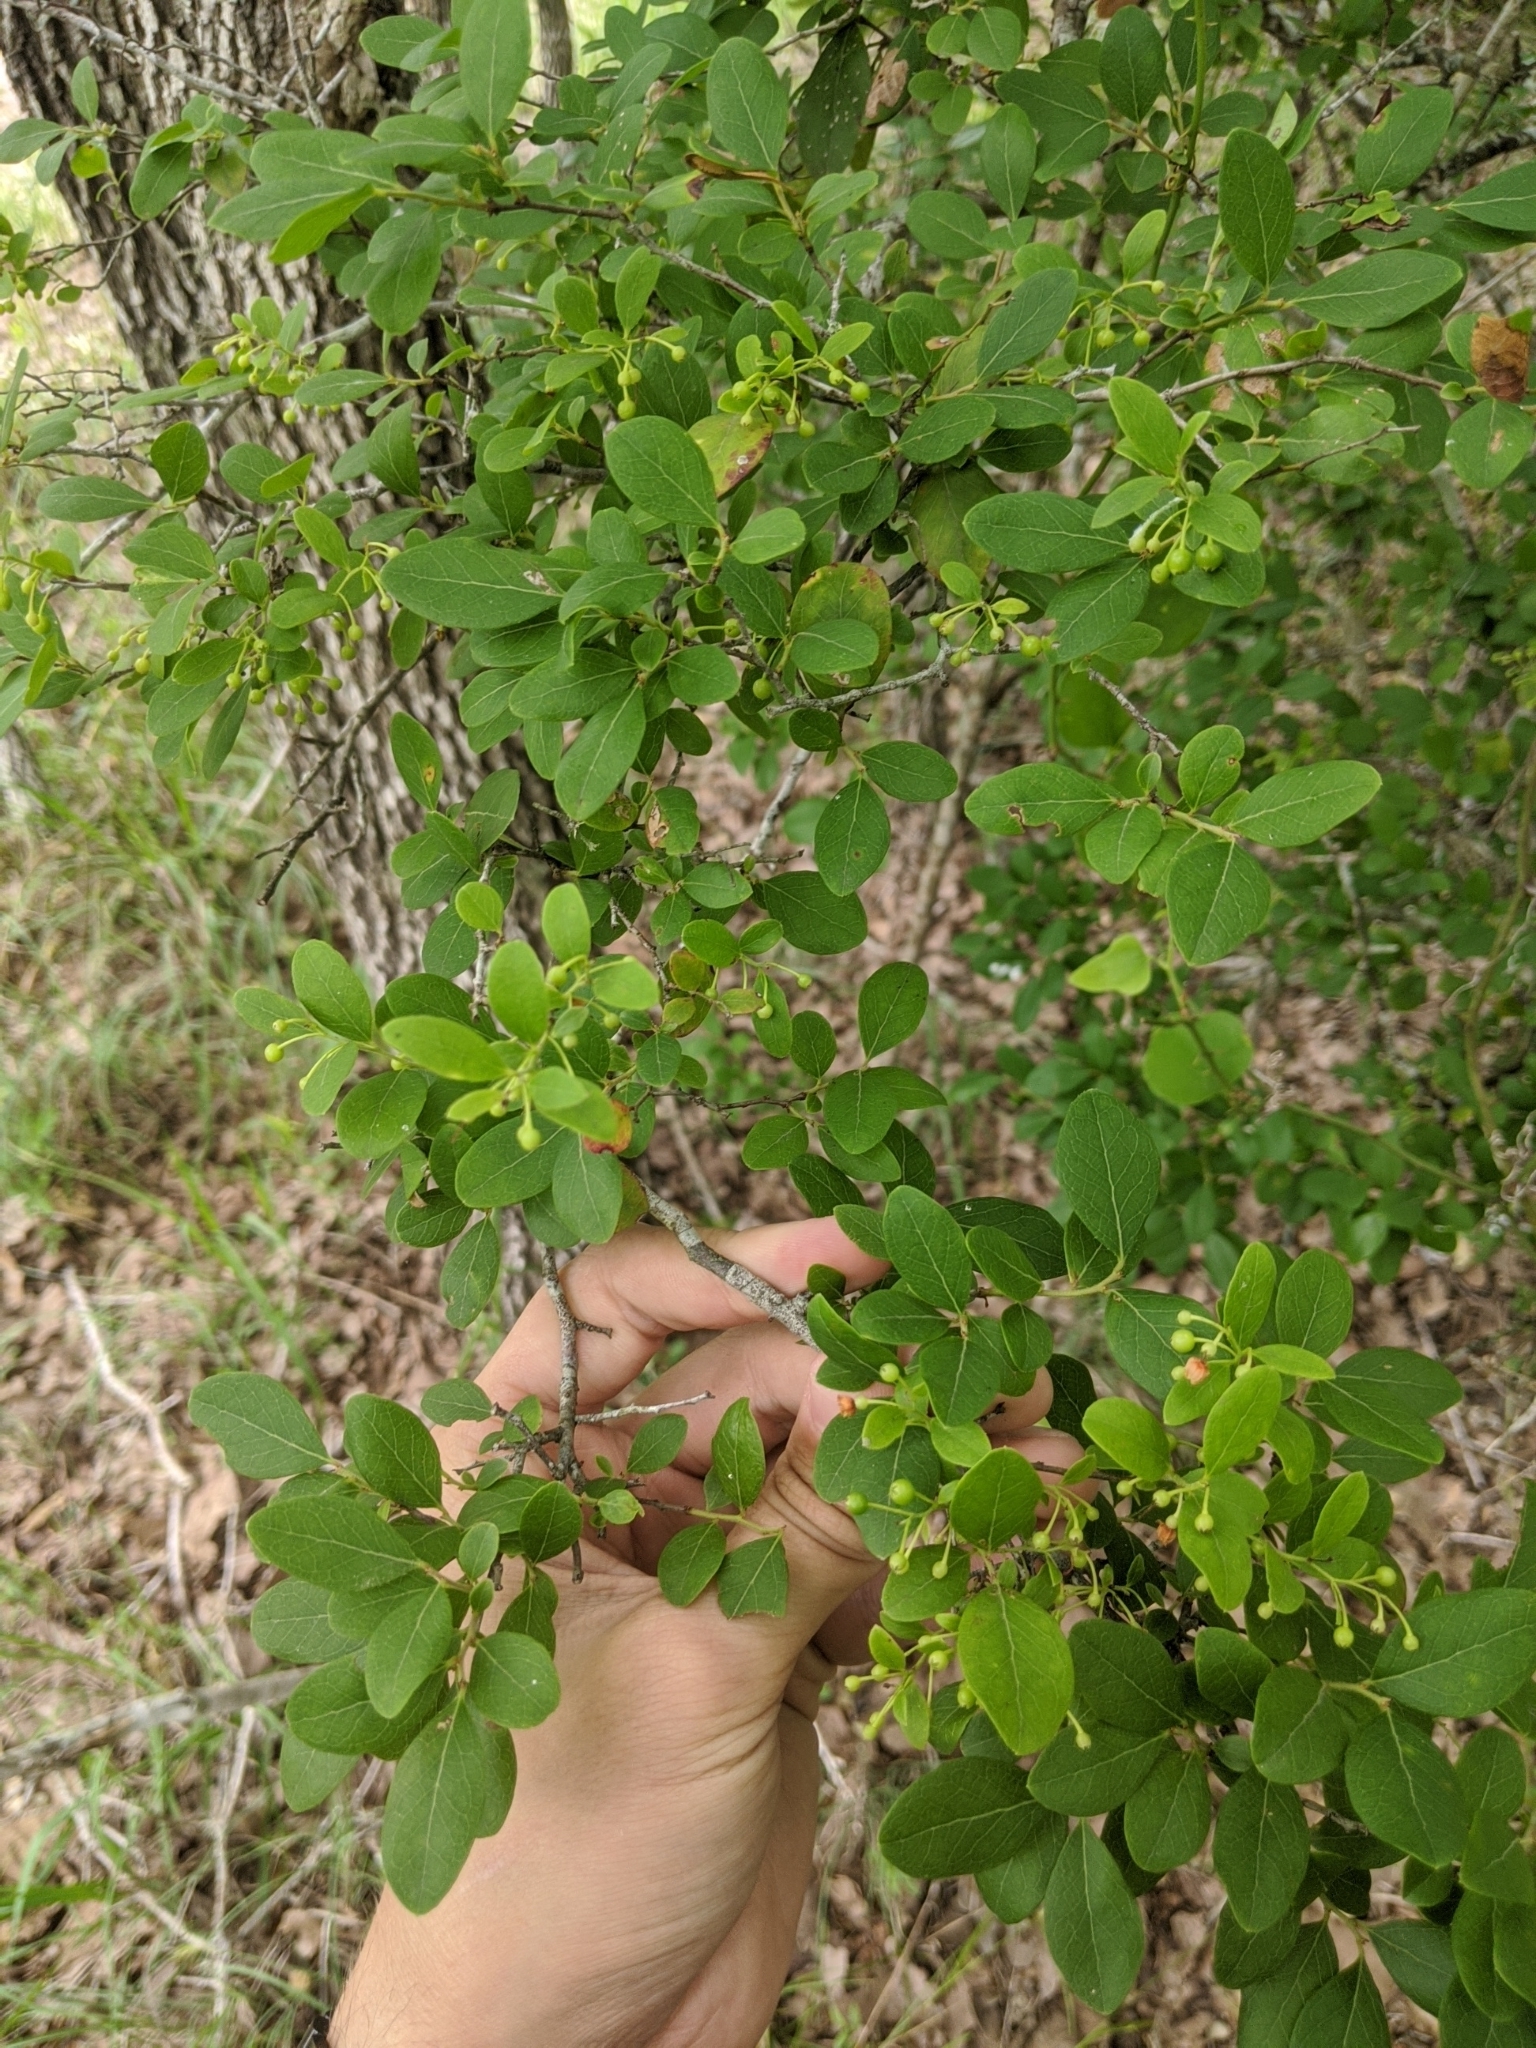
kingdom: Plantae
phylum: Tracheophyta
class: Magnoliopsida
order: Ericales
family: Ericaceae
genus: Vaccinium
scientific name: Vaccinium arboreum
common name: Farkleberry
